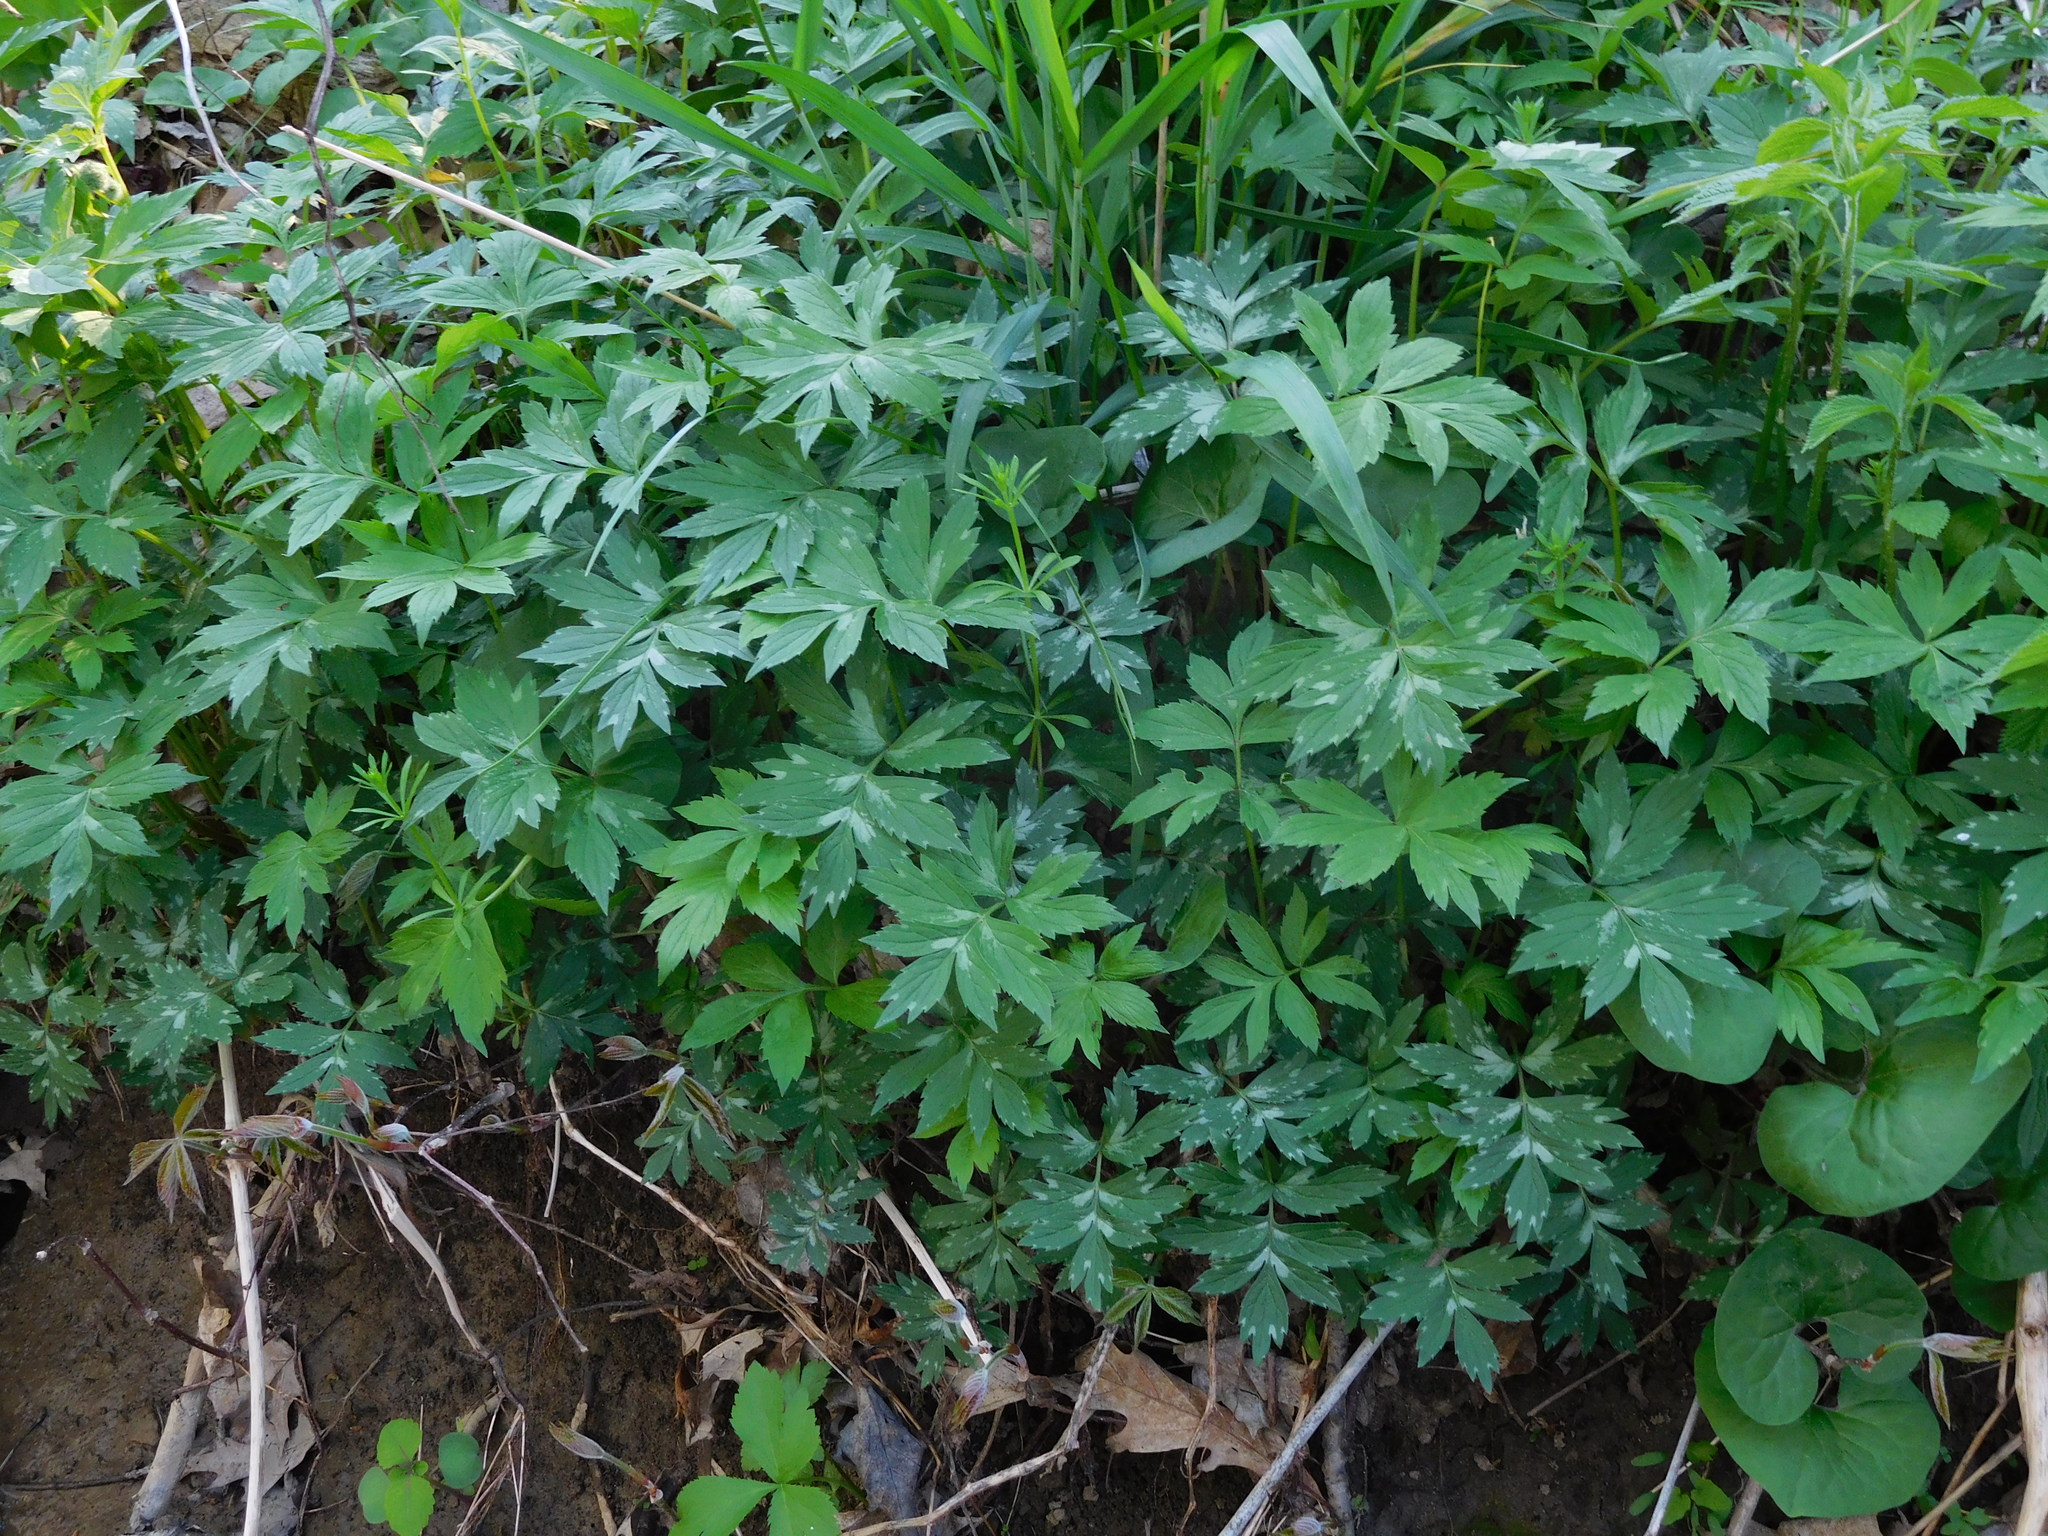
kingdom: Plantae
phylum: Tracheophyta
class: Magnoliopsida
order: Boraginales
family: Hydrophyllaceae
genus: Hydrophyllum
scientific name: Hydrophyllum virginianum
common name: Virginia waterleaf
